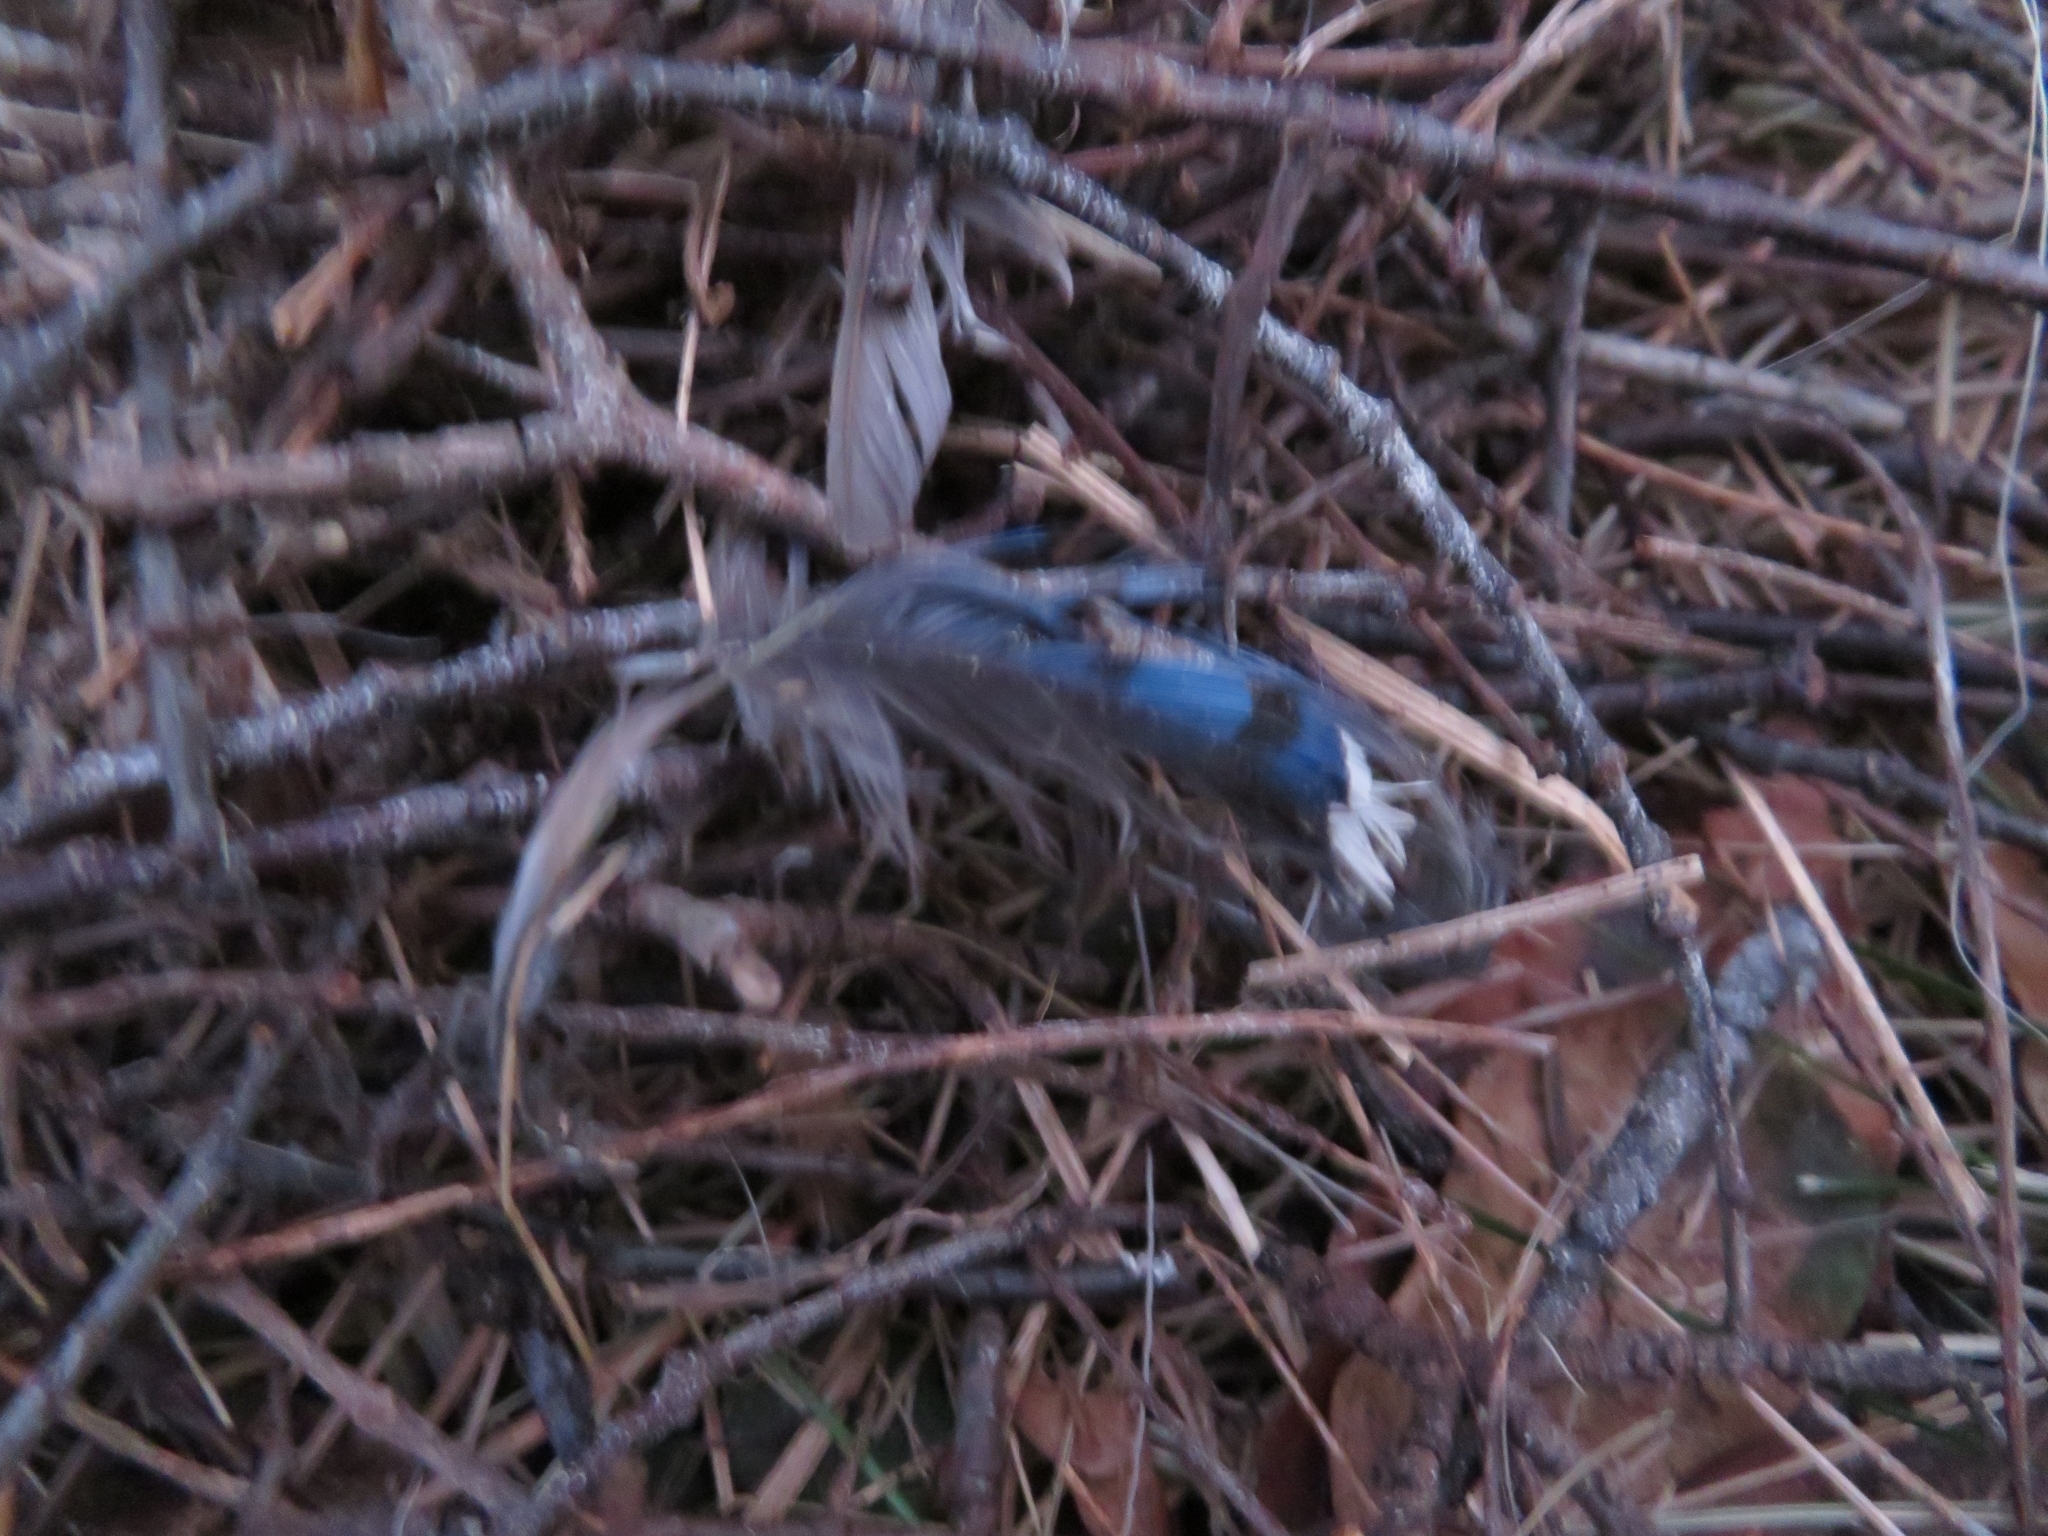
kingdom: Animalia
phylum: Chordata
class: Aves
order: Passeriformes
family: Corvidae
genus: Cyanocitta
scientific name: Cyanocitta cristata
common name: Blue jay
